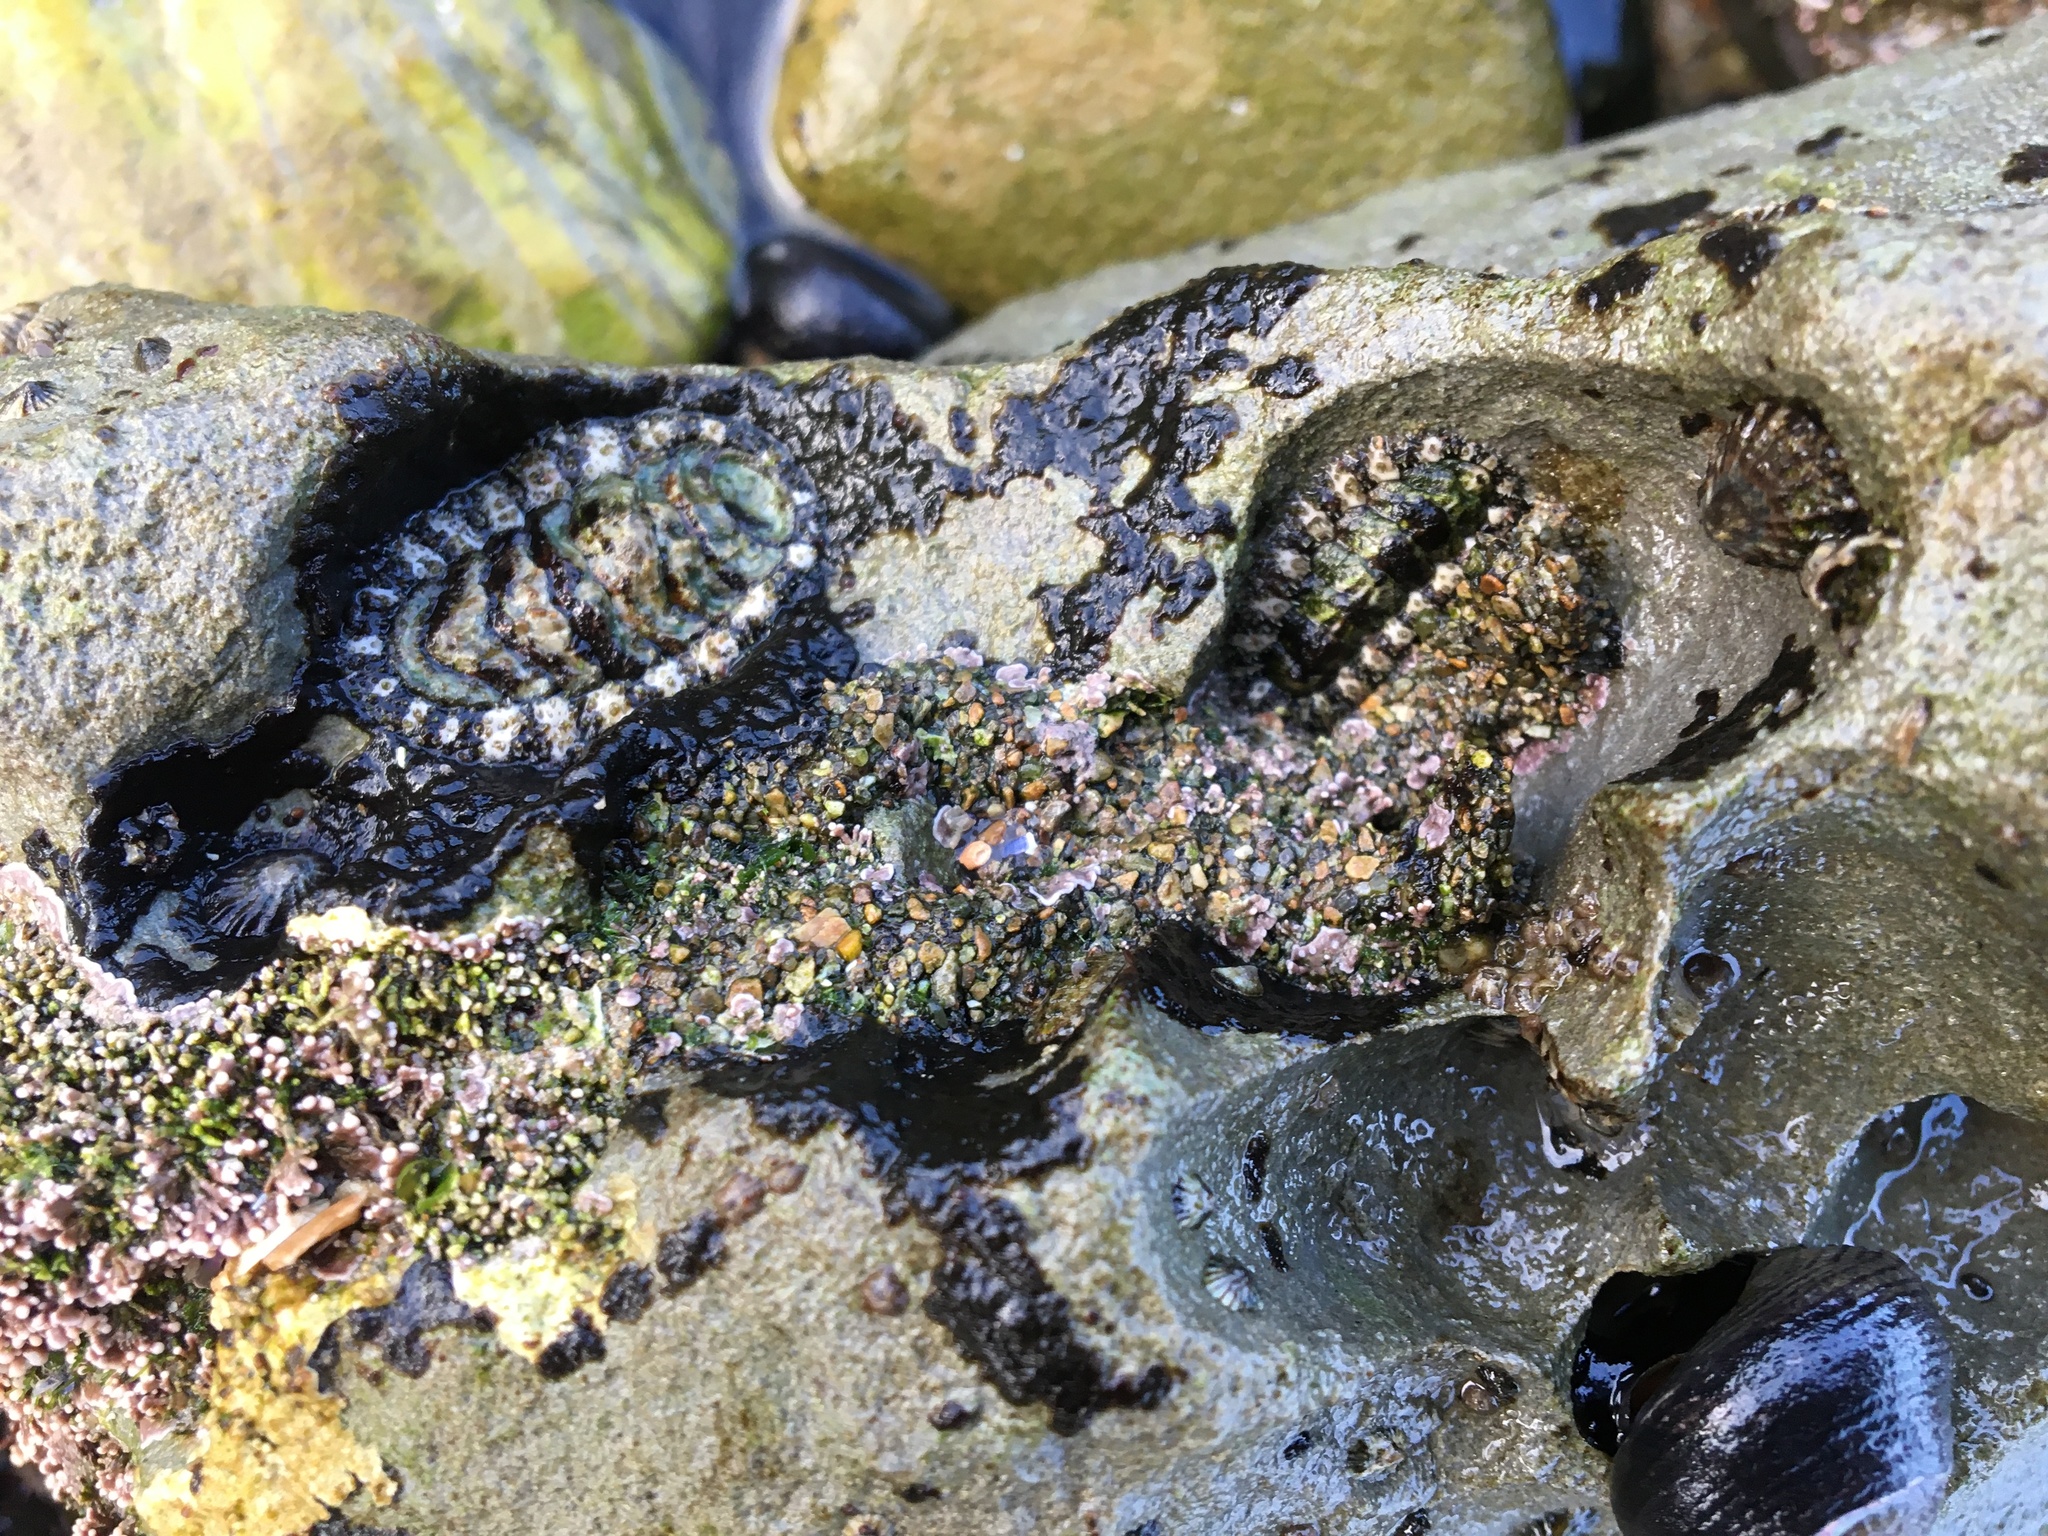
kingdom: Animalia
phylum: Mollusca
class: Polyplacophora
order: Chitonida
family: Tonicellidae
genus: Nuttallina
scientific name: Nuttallina californica
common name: California nuttall chiton
